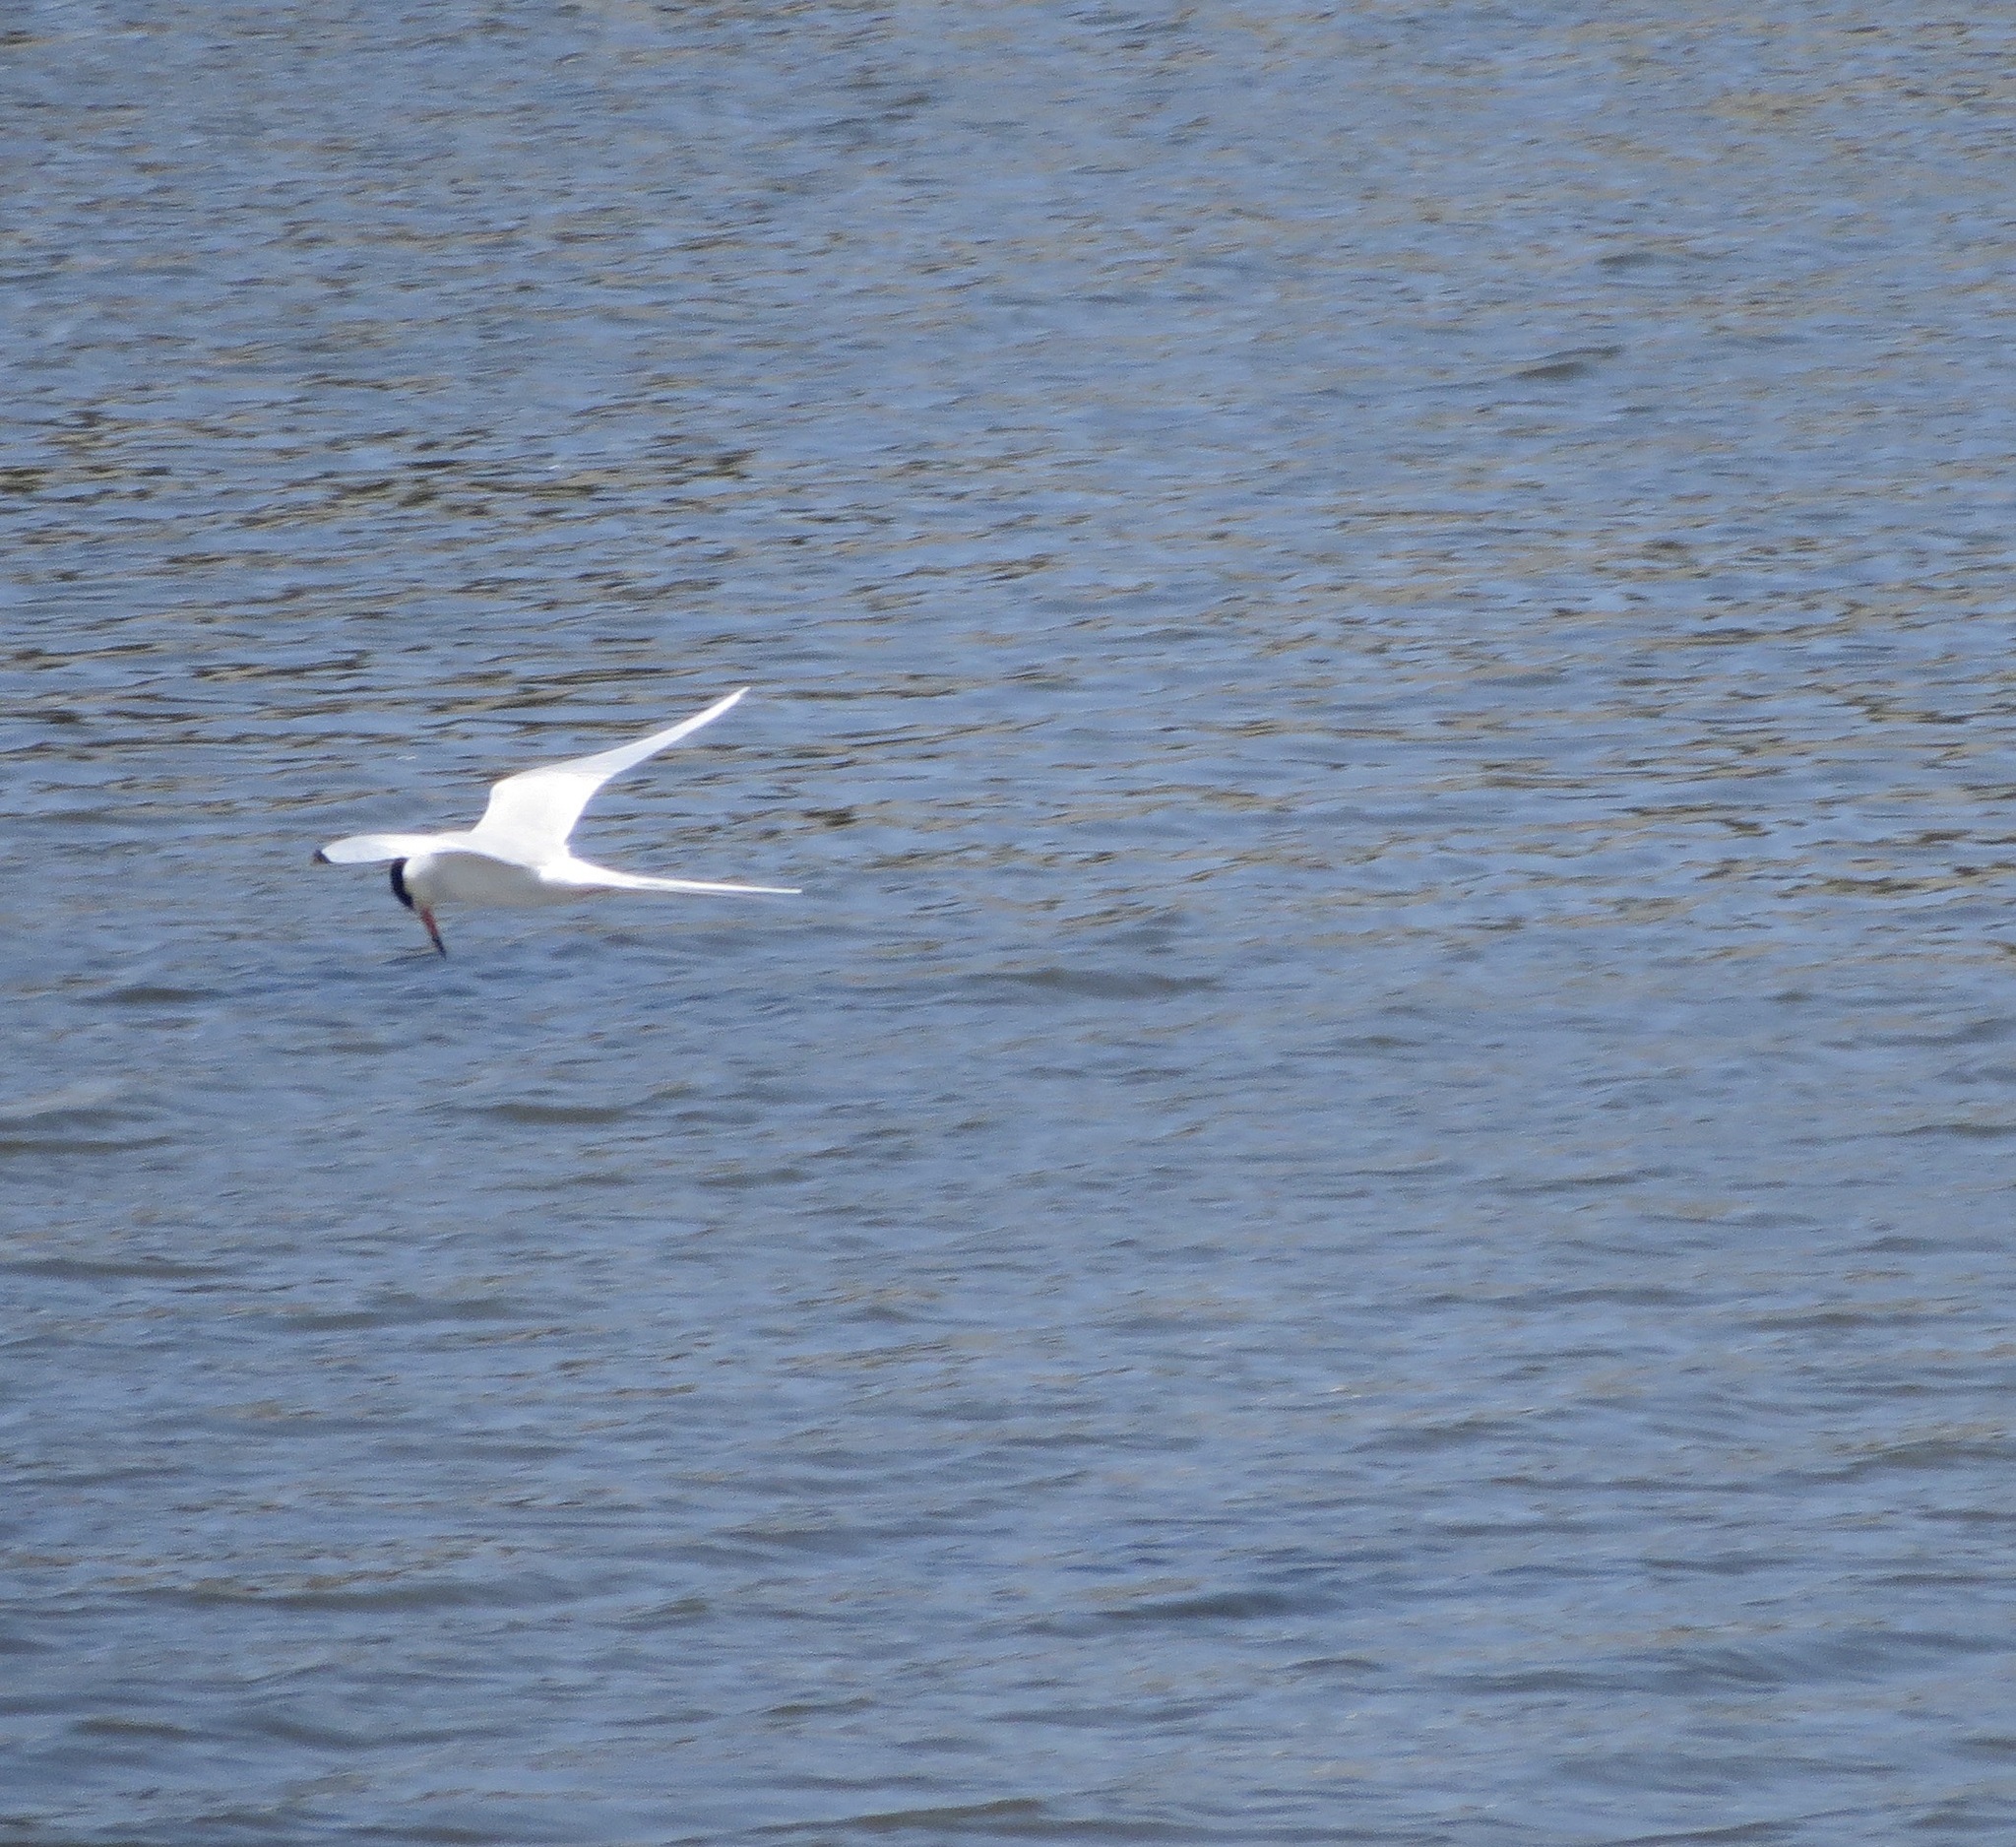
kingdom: Animalia
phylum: Chordata
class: Aves
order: Charadriiformes
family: Laridae
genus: Sterna
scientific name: Sterna forsteri
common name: Forster's tern
